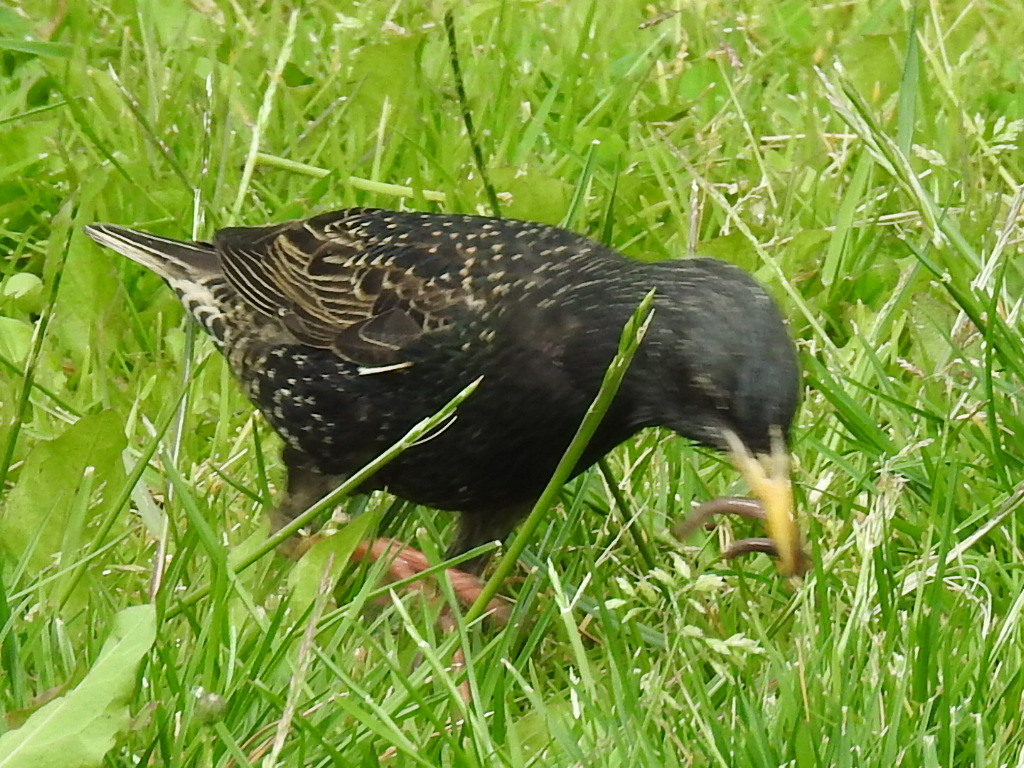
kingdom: Animalia
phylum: Chordata
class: Aves
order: Passeriformes
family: Sturnidae
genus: Sturnus
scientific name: Sturnus vulgaris
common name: Common starling
